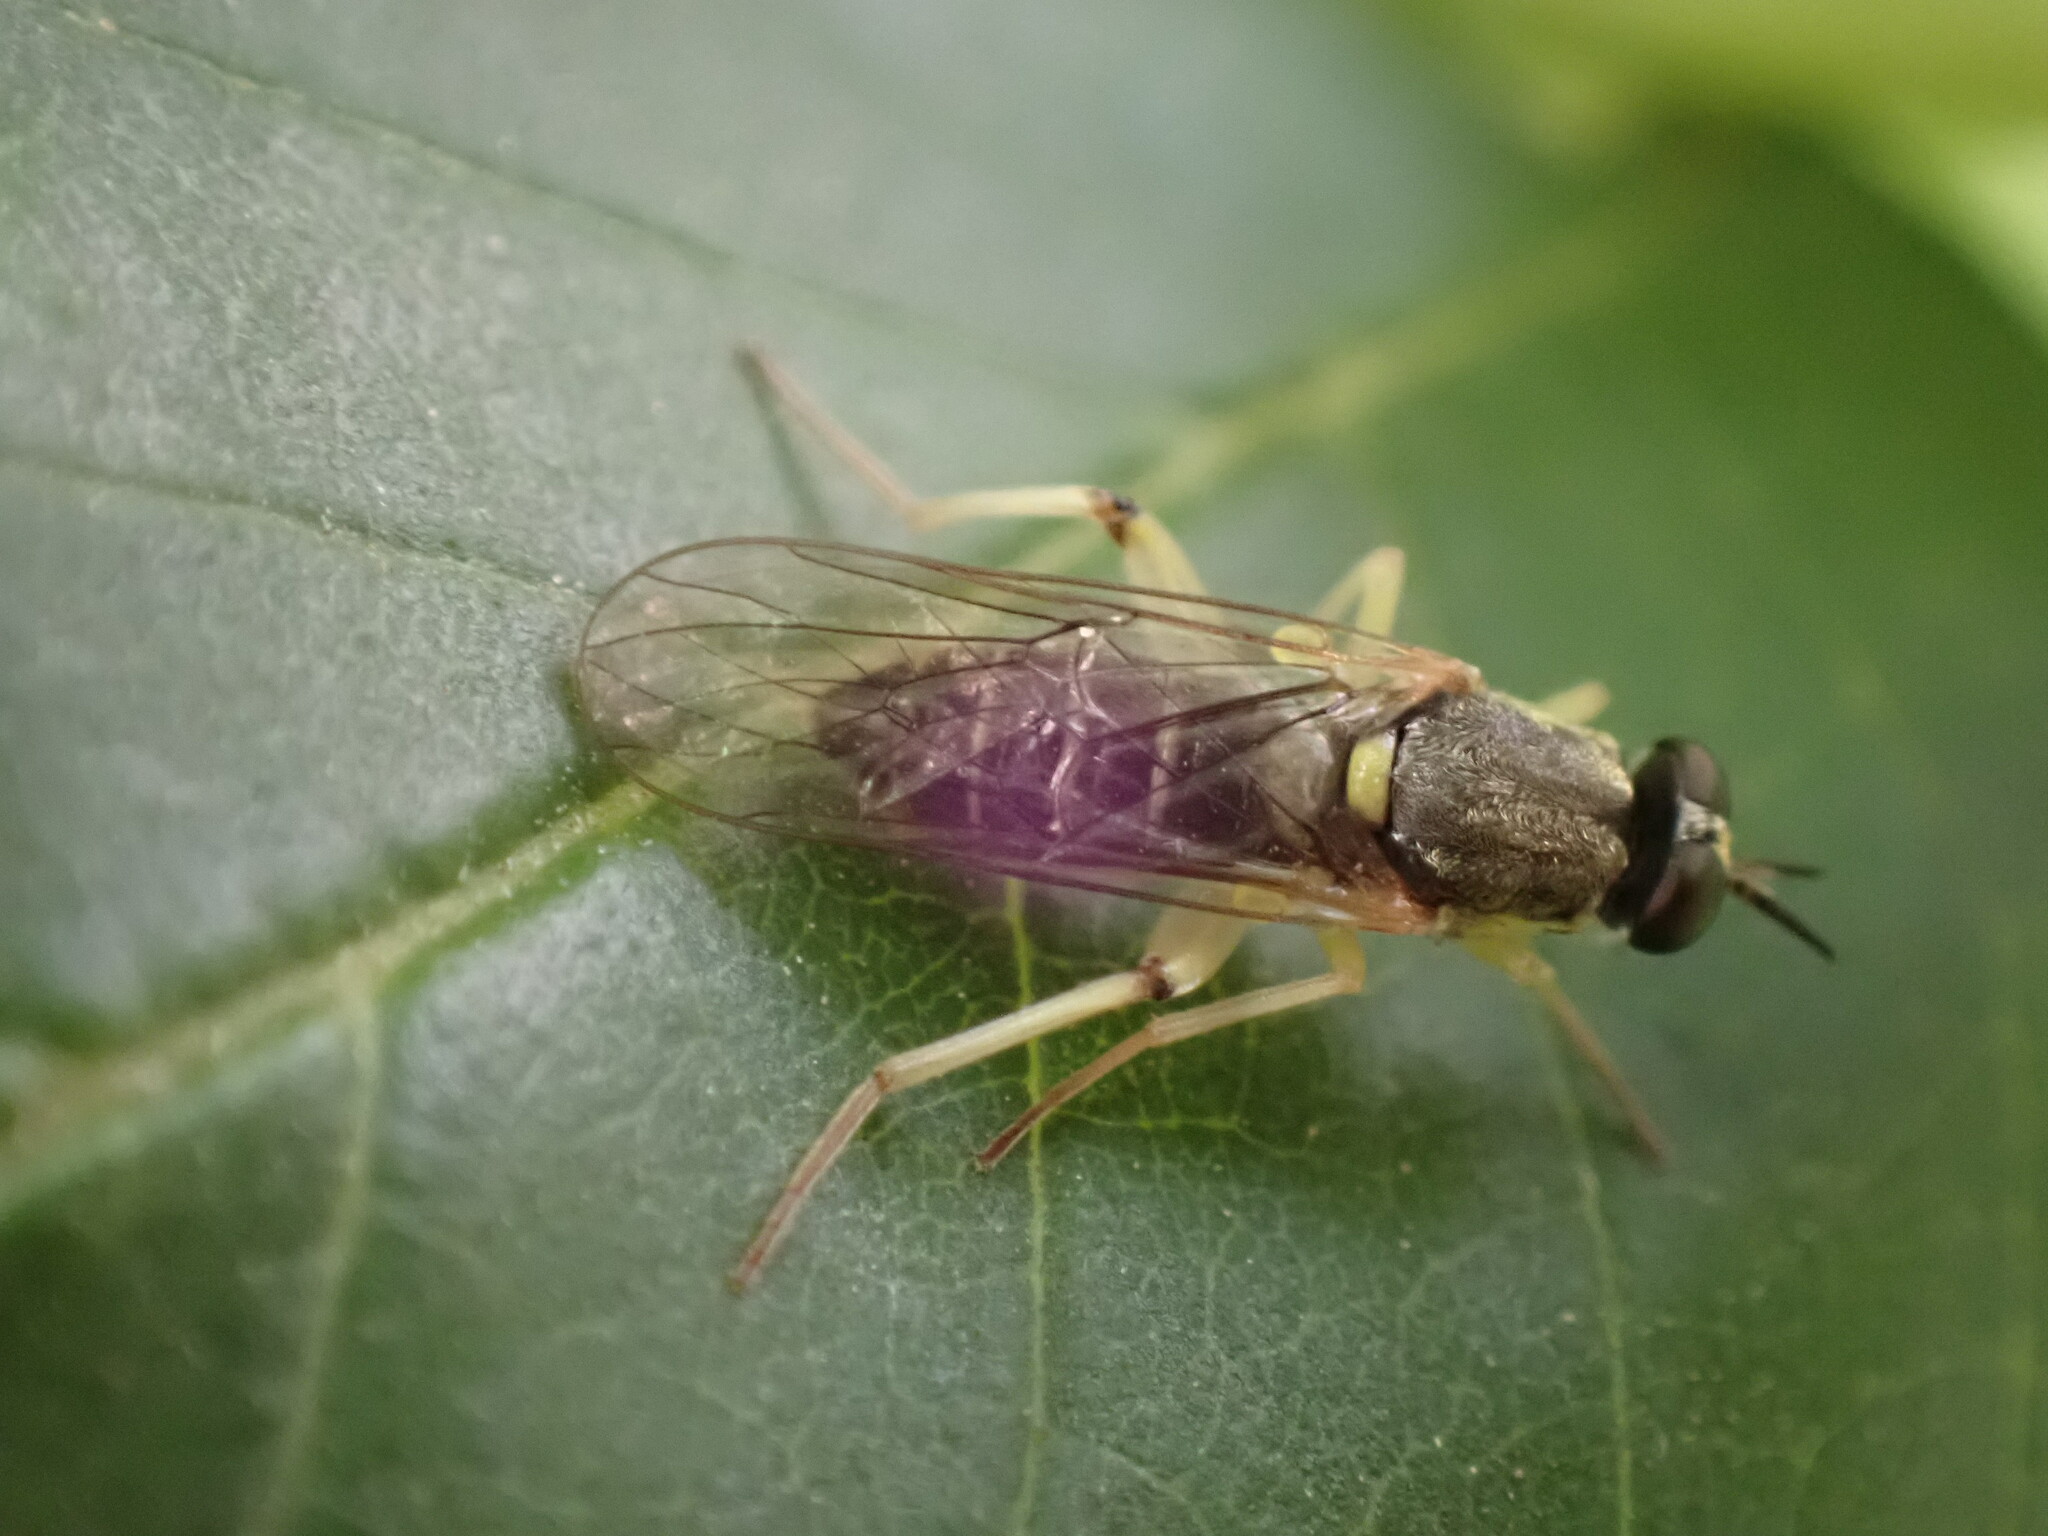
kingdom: Animalia
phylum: Arthropoda
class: Insecta
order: Diptera
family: Xylomyidae
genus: Solva
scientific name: Solva pallipes
